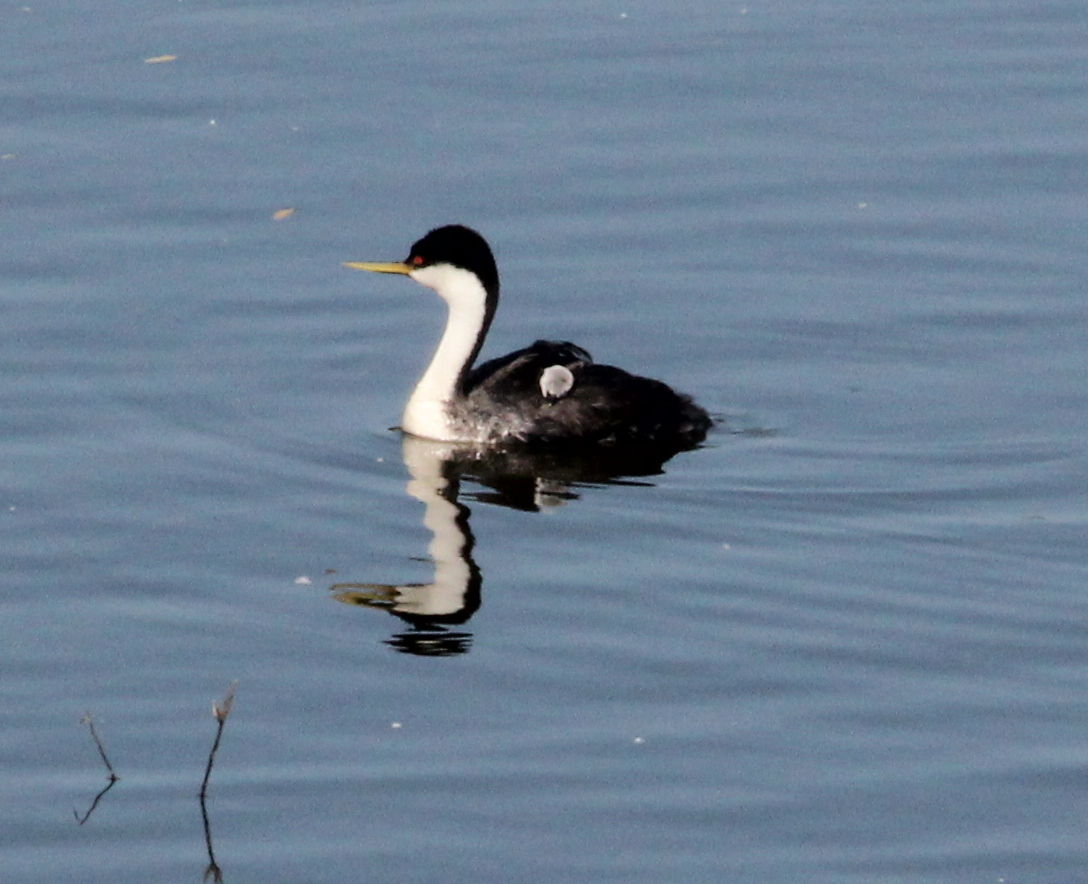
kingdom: Animalia
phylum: Chordata
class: Aves
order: Podicipediformes
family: Podicipedidae
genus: Aechmophorus
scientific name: Aechmophorus occidentalis
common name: Western grebe
